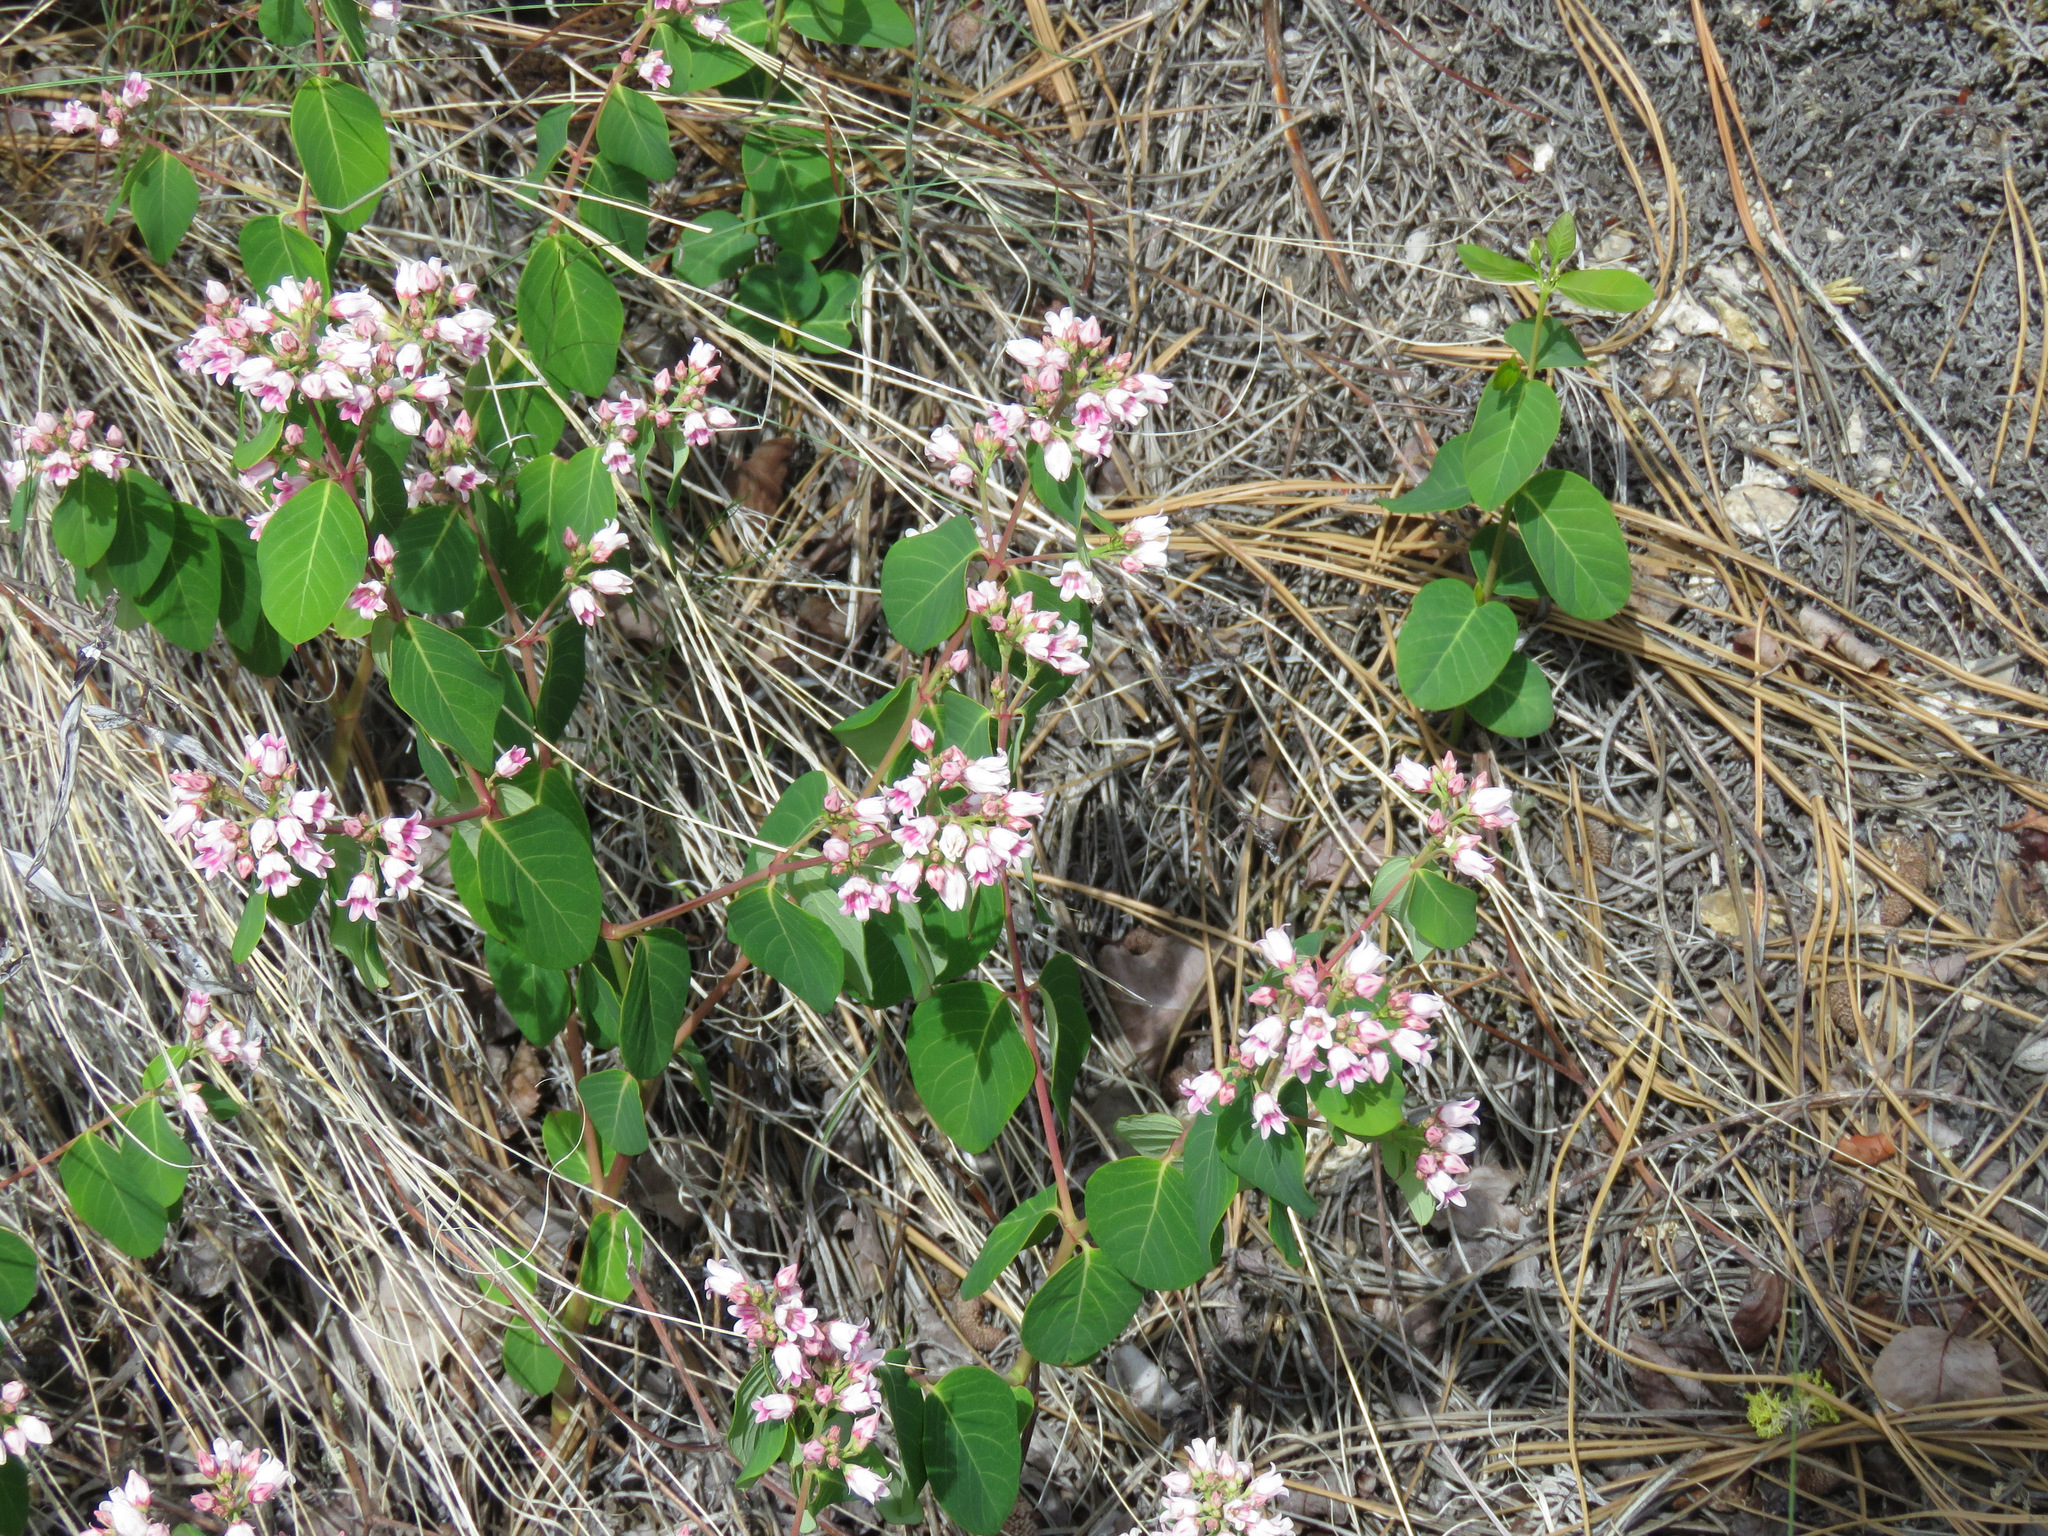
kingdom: Plantae
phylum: Tracheophyta
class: Magnoliopsida
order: Gentianales
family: Apocynaceae
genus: Apocynum
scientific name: Apocynum androsaemifolium
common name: Spreading dogbane
